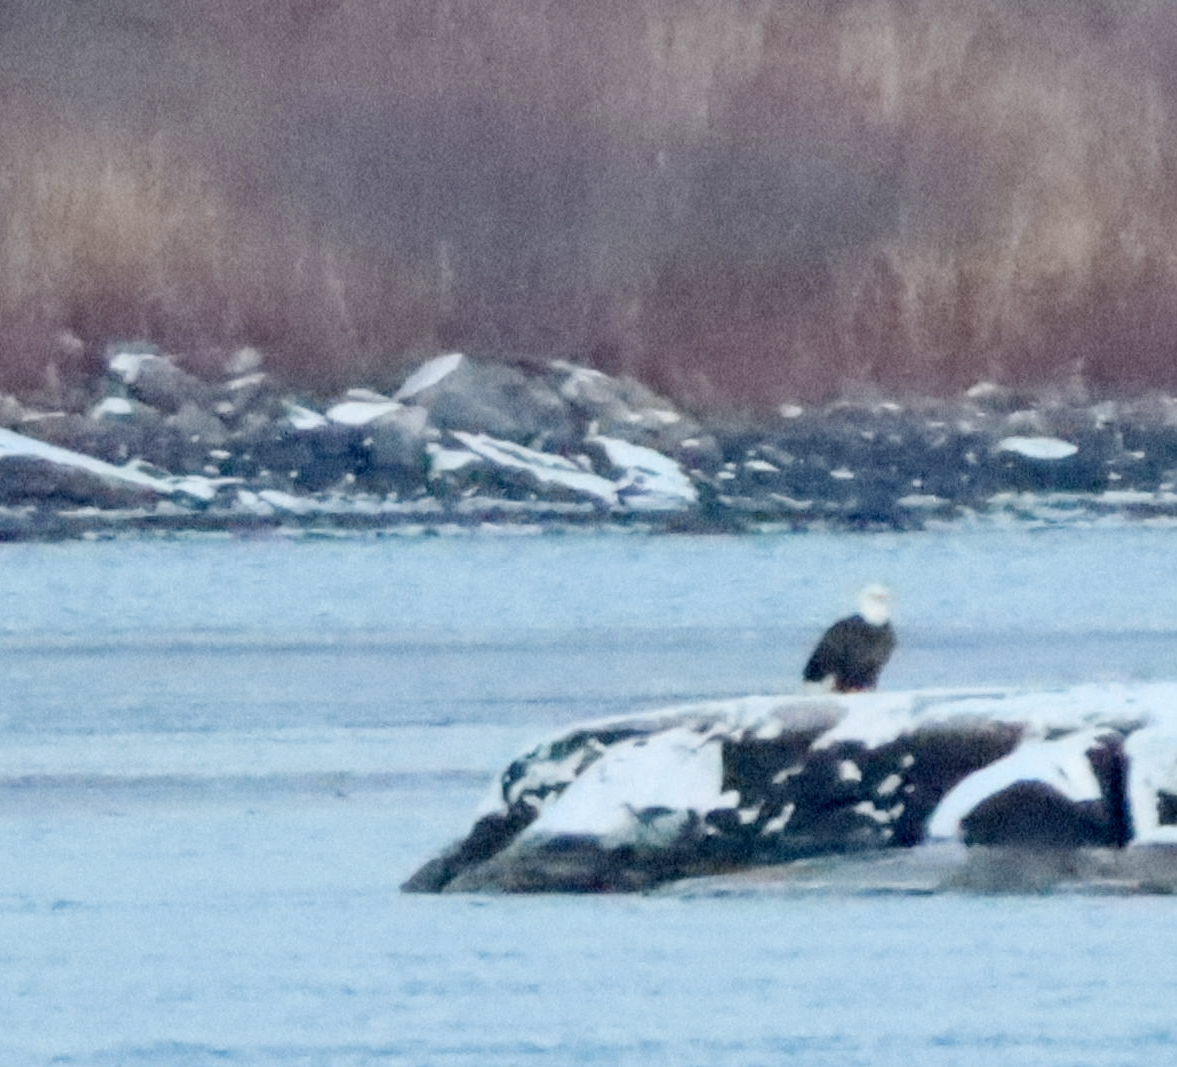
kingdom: Animalia
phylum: Chordata
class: Aves
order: Accipitriformes
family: Accipitridae
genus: Haliaeetus
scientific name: Haliaeetus leucocephalus
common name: Bald eagle
